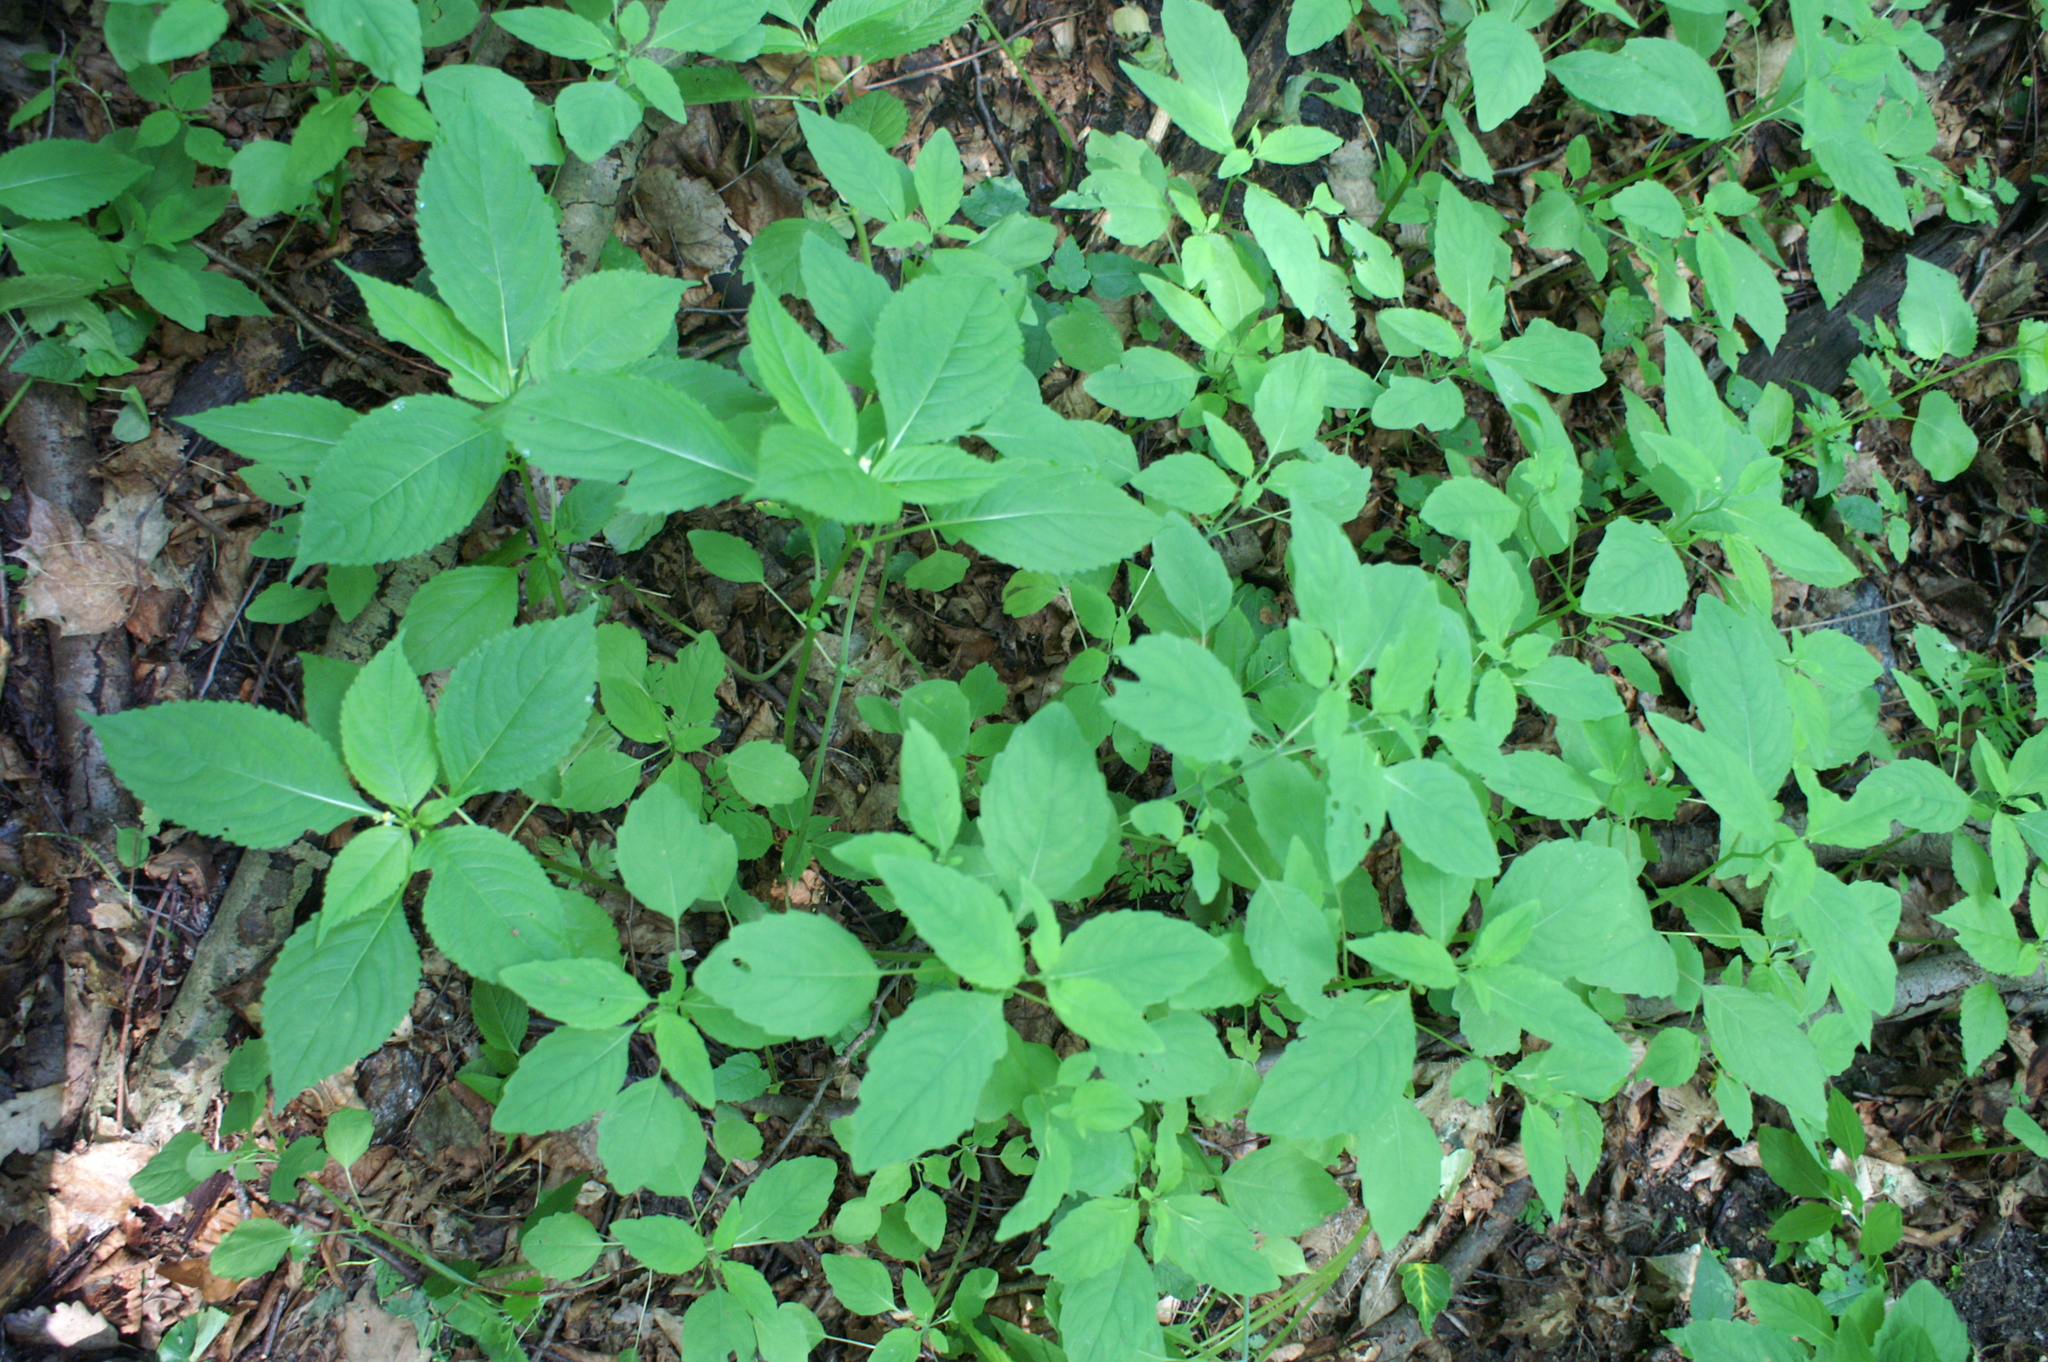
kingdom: Plantae
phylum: Tracheophyta
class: Magnoliopsida
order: Ericales
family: Balsaminaceae
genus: Impatiens
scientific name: Impatiens noli-tangere
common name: Touch-me-not balsam
